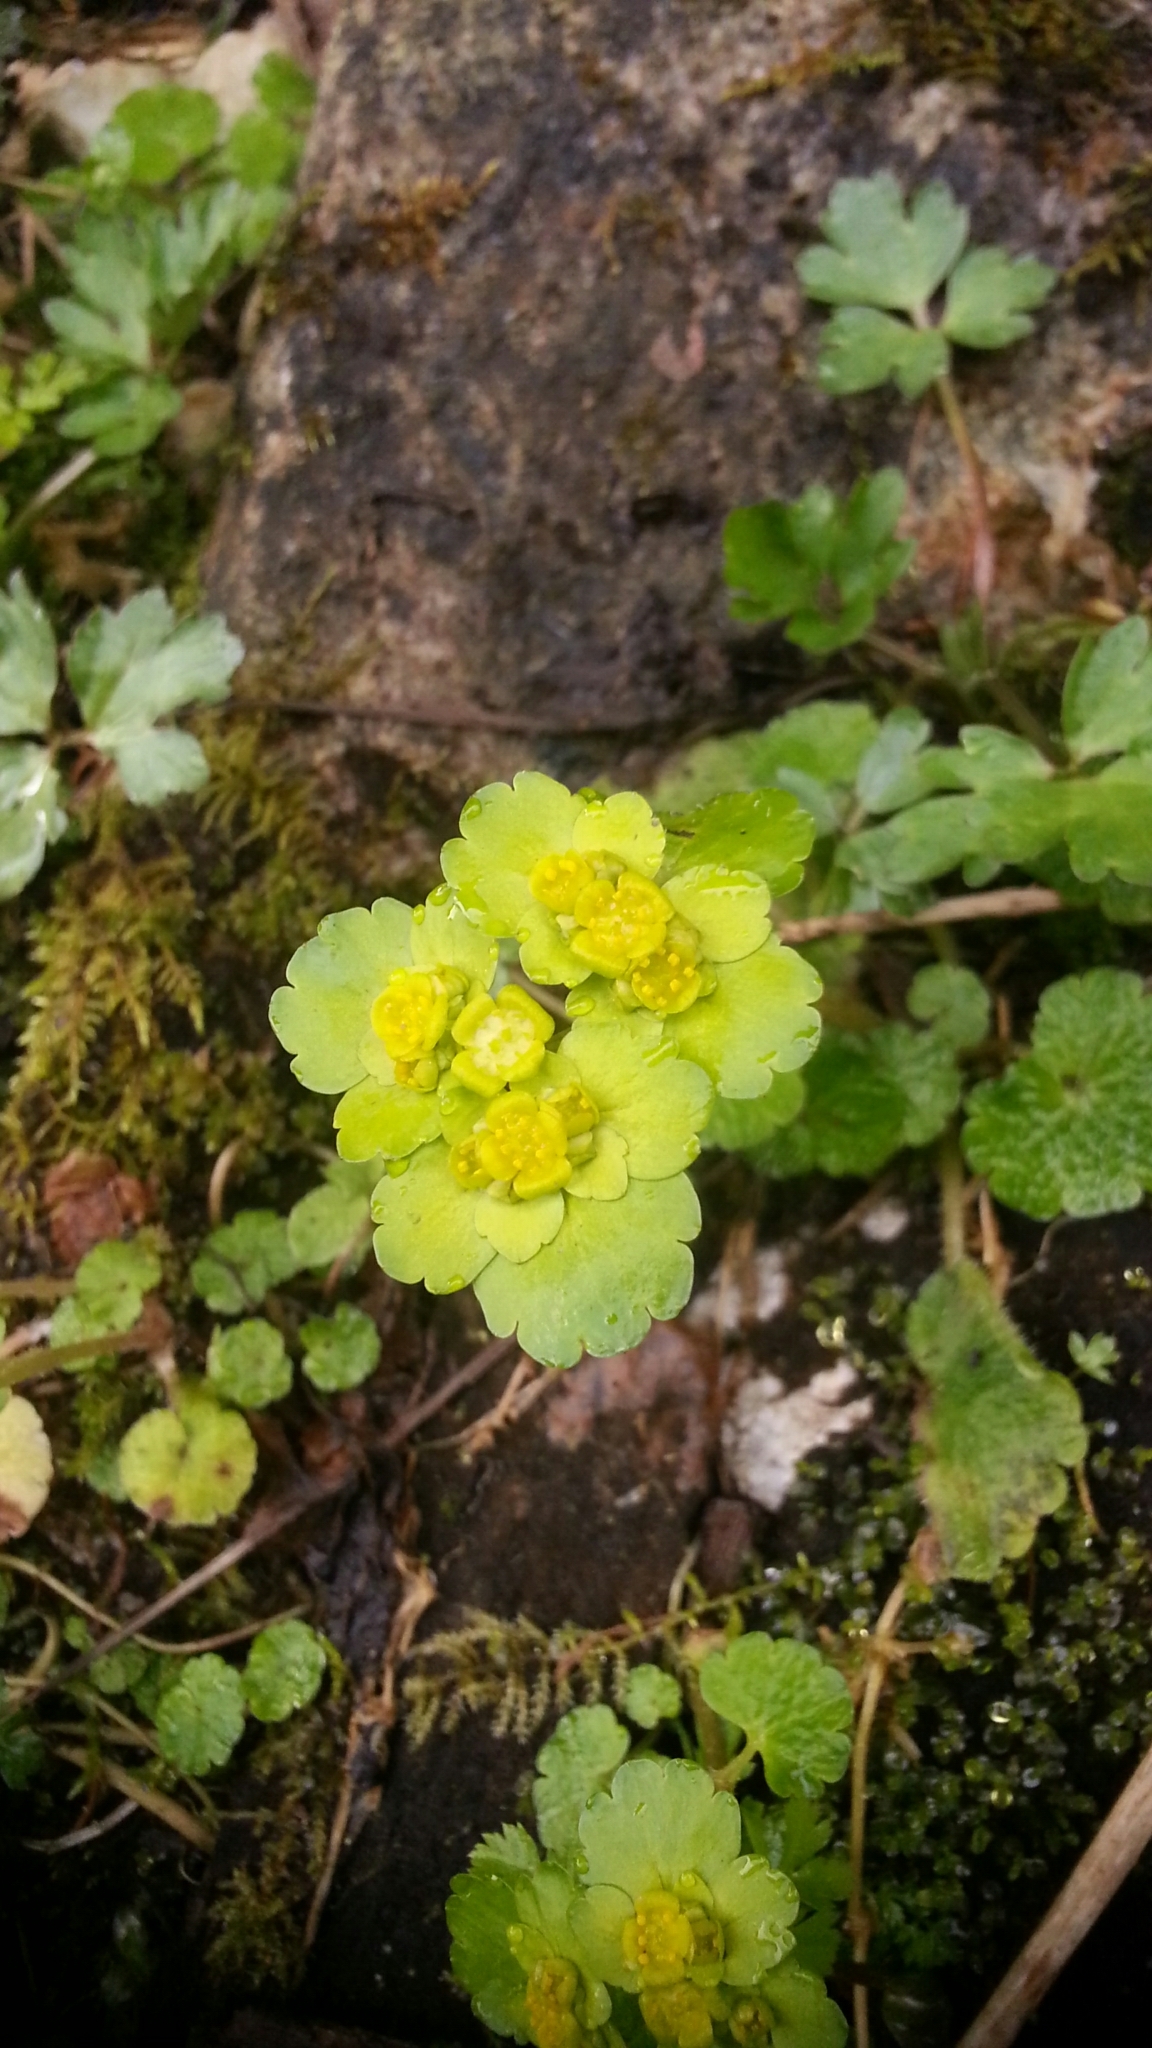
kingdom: Plantae
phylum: Tracheophyta
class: Magnoliopsida
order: Saxifragales
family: Saxifragaceae
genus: Chrysosplenium
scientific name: Chrysosplenium alternifolium
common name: Alternate-leaved golden-saxifrage
